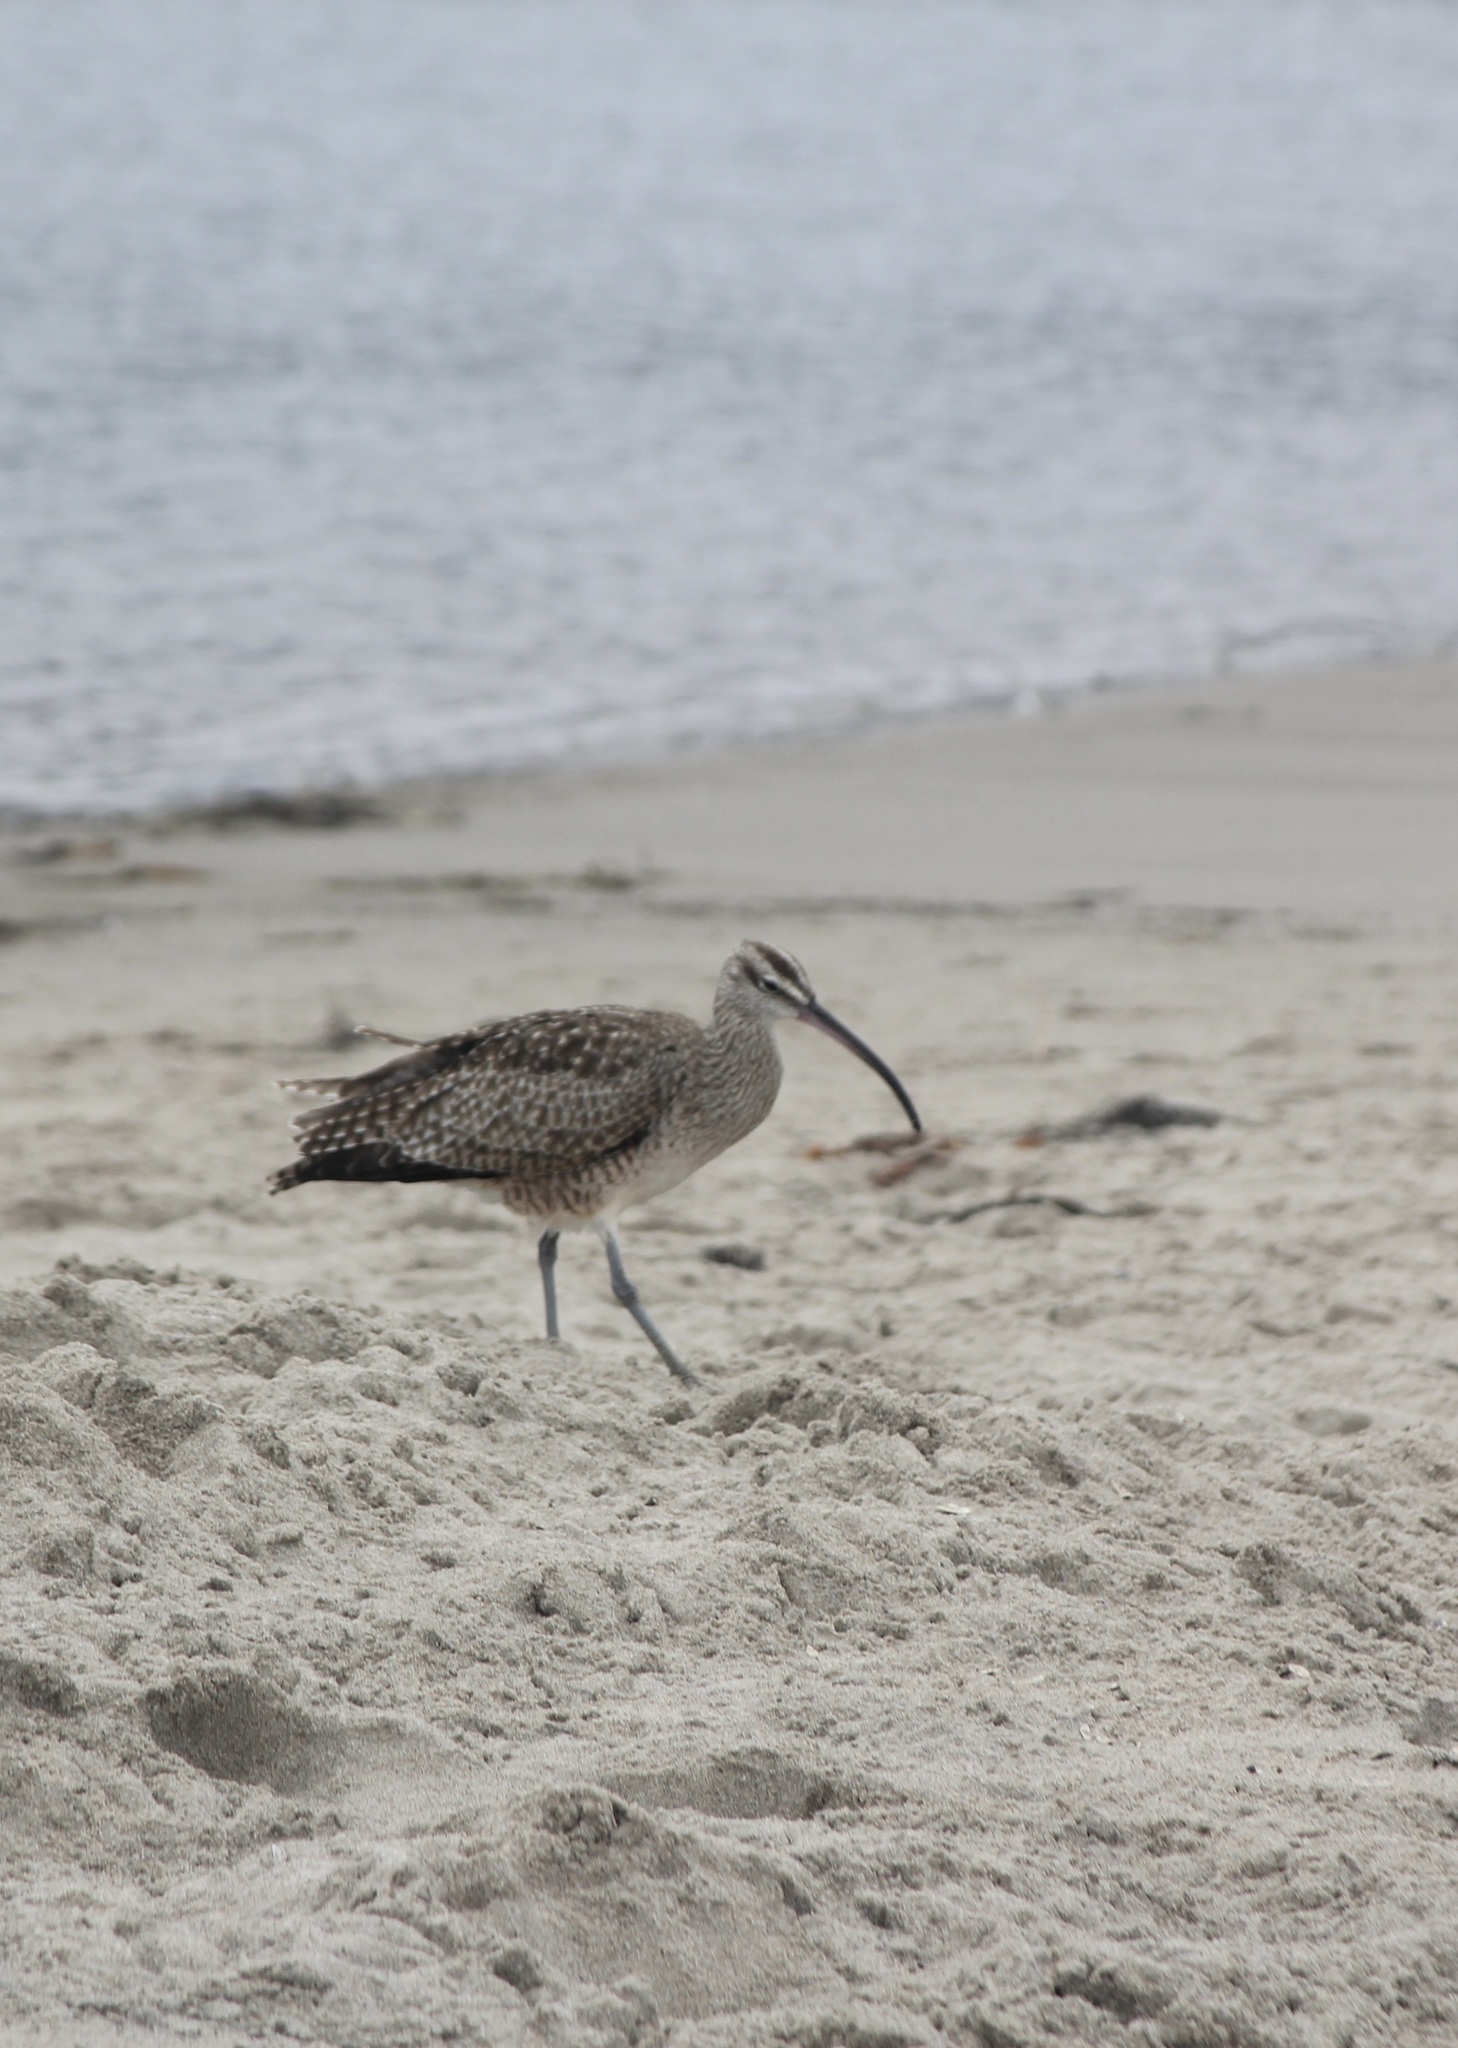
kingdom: Animalia
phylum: Chordata
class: Aves
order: Charadriiformes
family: Scolopacidae
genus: Numenius
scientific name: Numenius phaeopus
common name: Whimbrel
